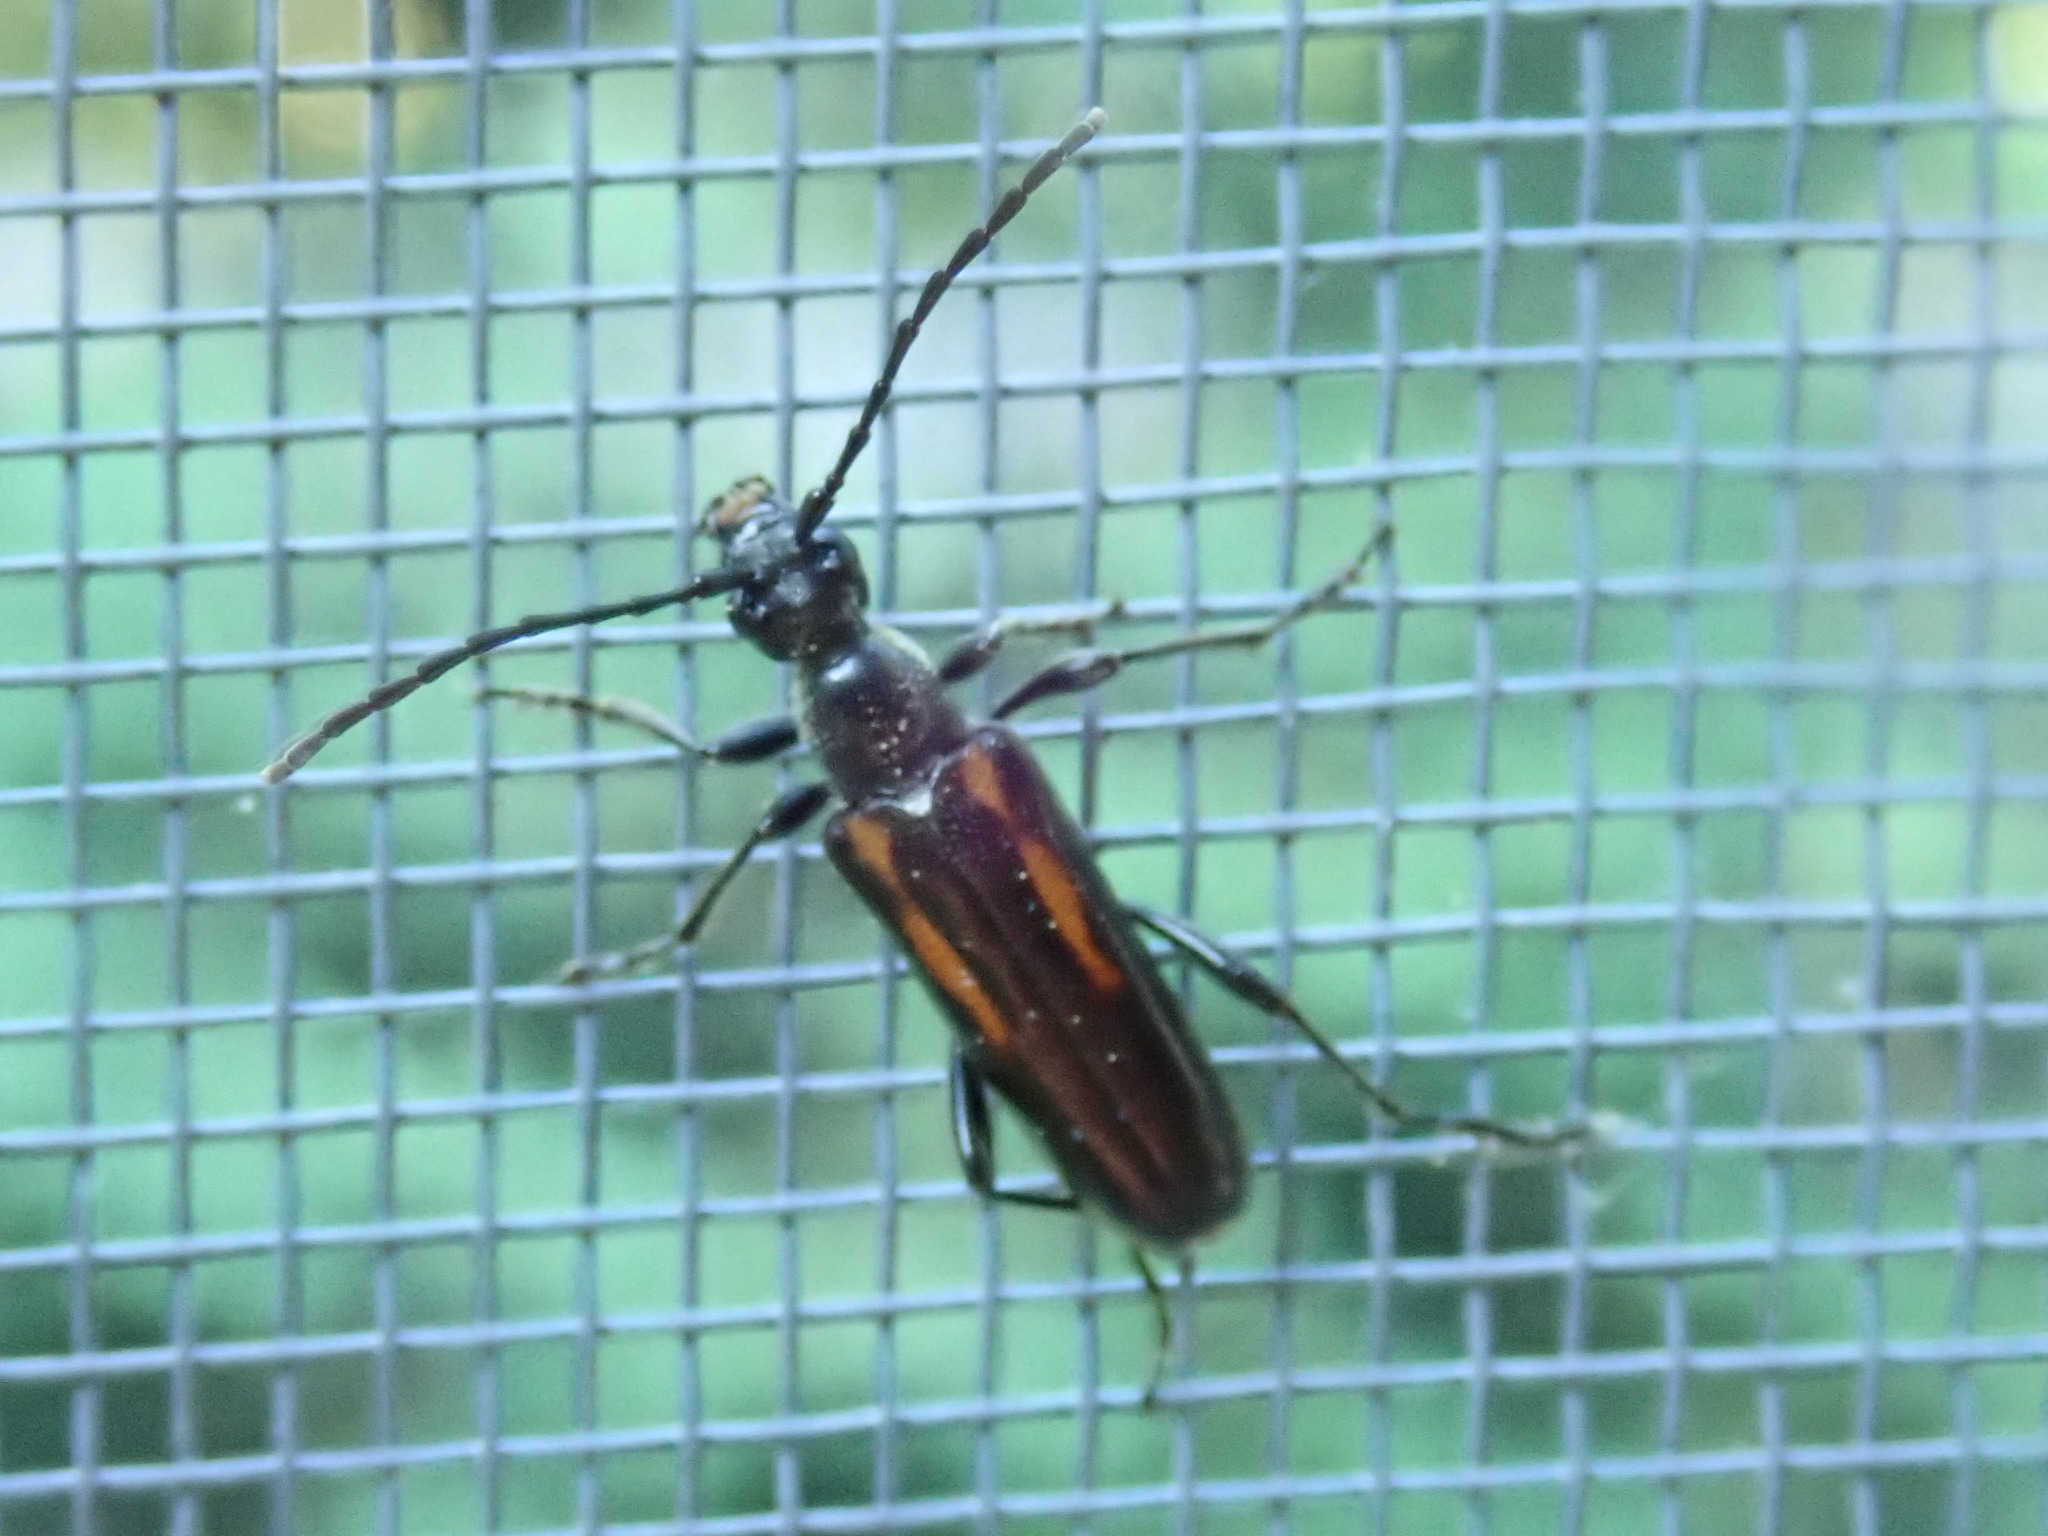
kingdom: Animalia
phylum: Arthropoda
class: Insecta
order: Coleoptera
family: Cerambycidae
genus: Strangalepta
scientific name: Strangalepta abbreviata
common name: Strangalepta flower longhorn beetle
